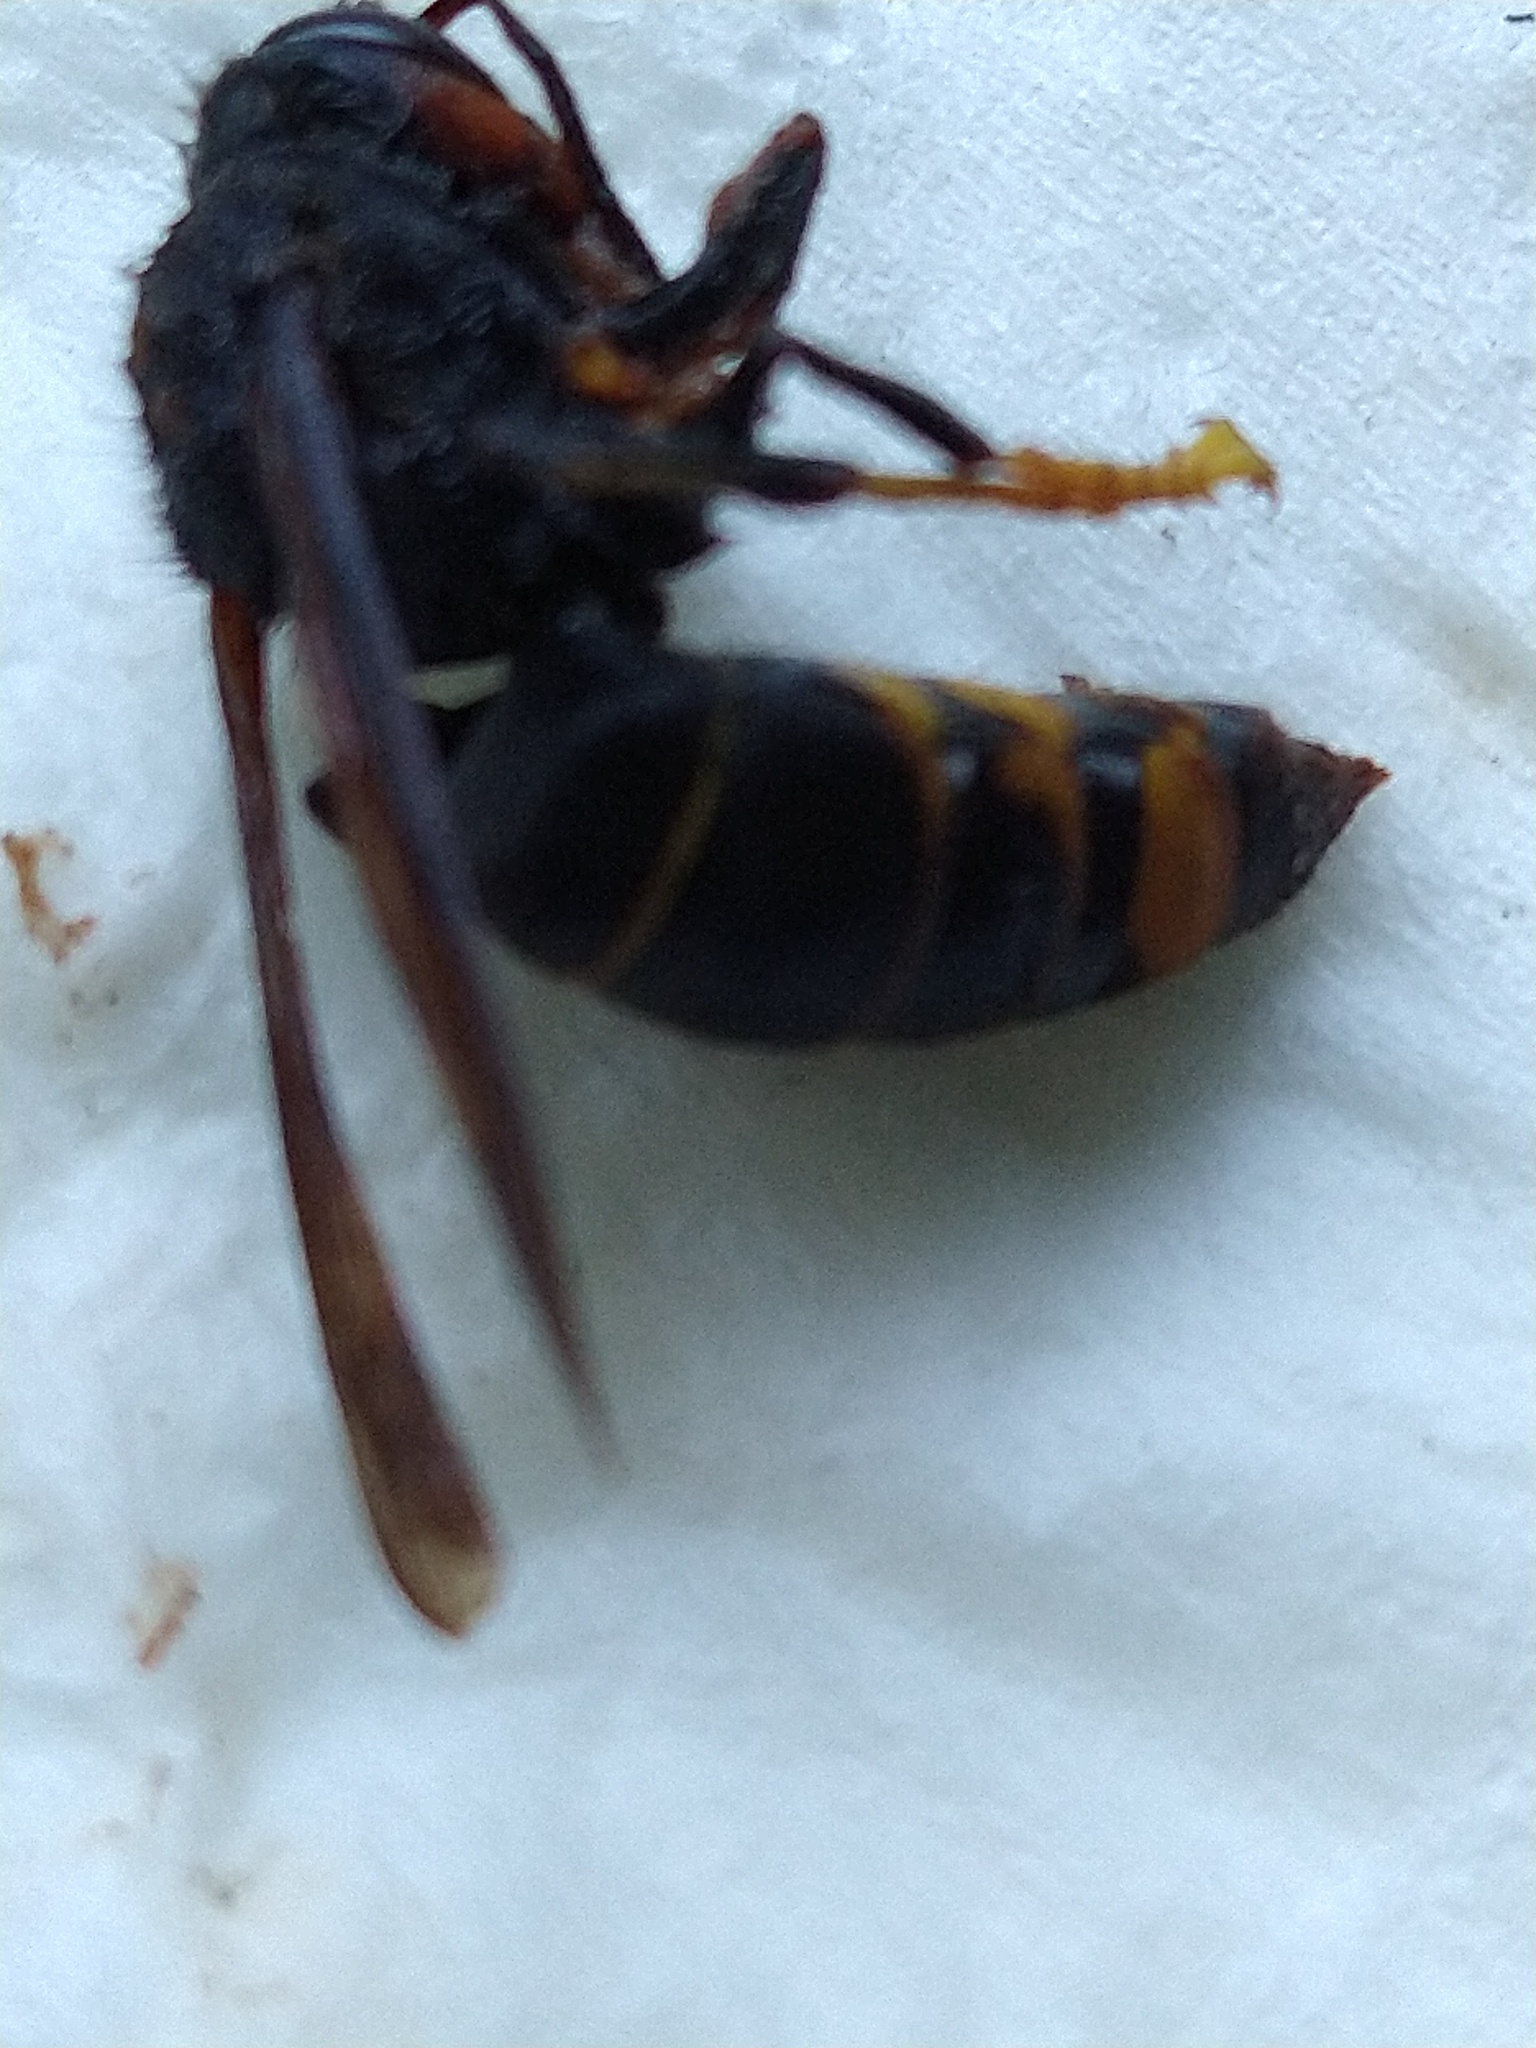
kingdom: Animalia
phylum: Arthropoda
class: Insecta
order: Hymenoptera
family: Vespidae
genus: Vespa
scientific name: Vespa velutina
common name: Asian hornet
